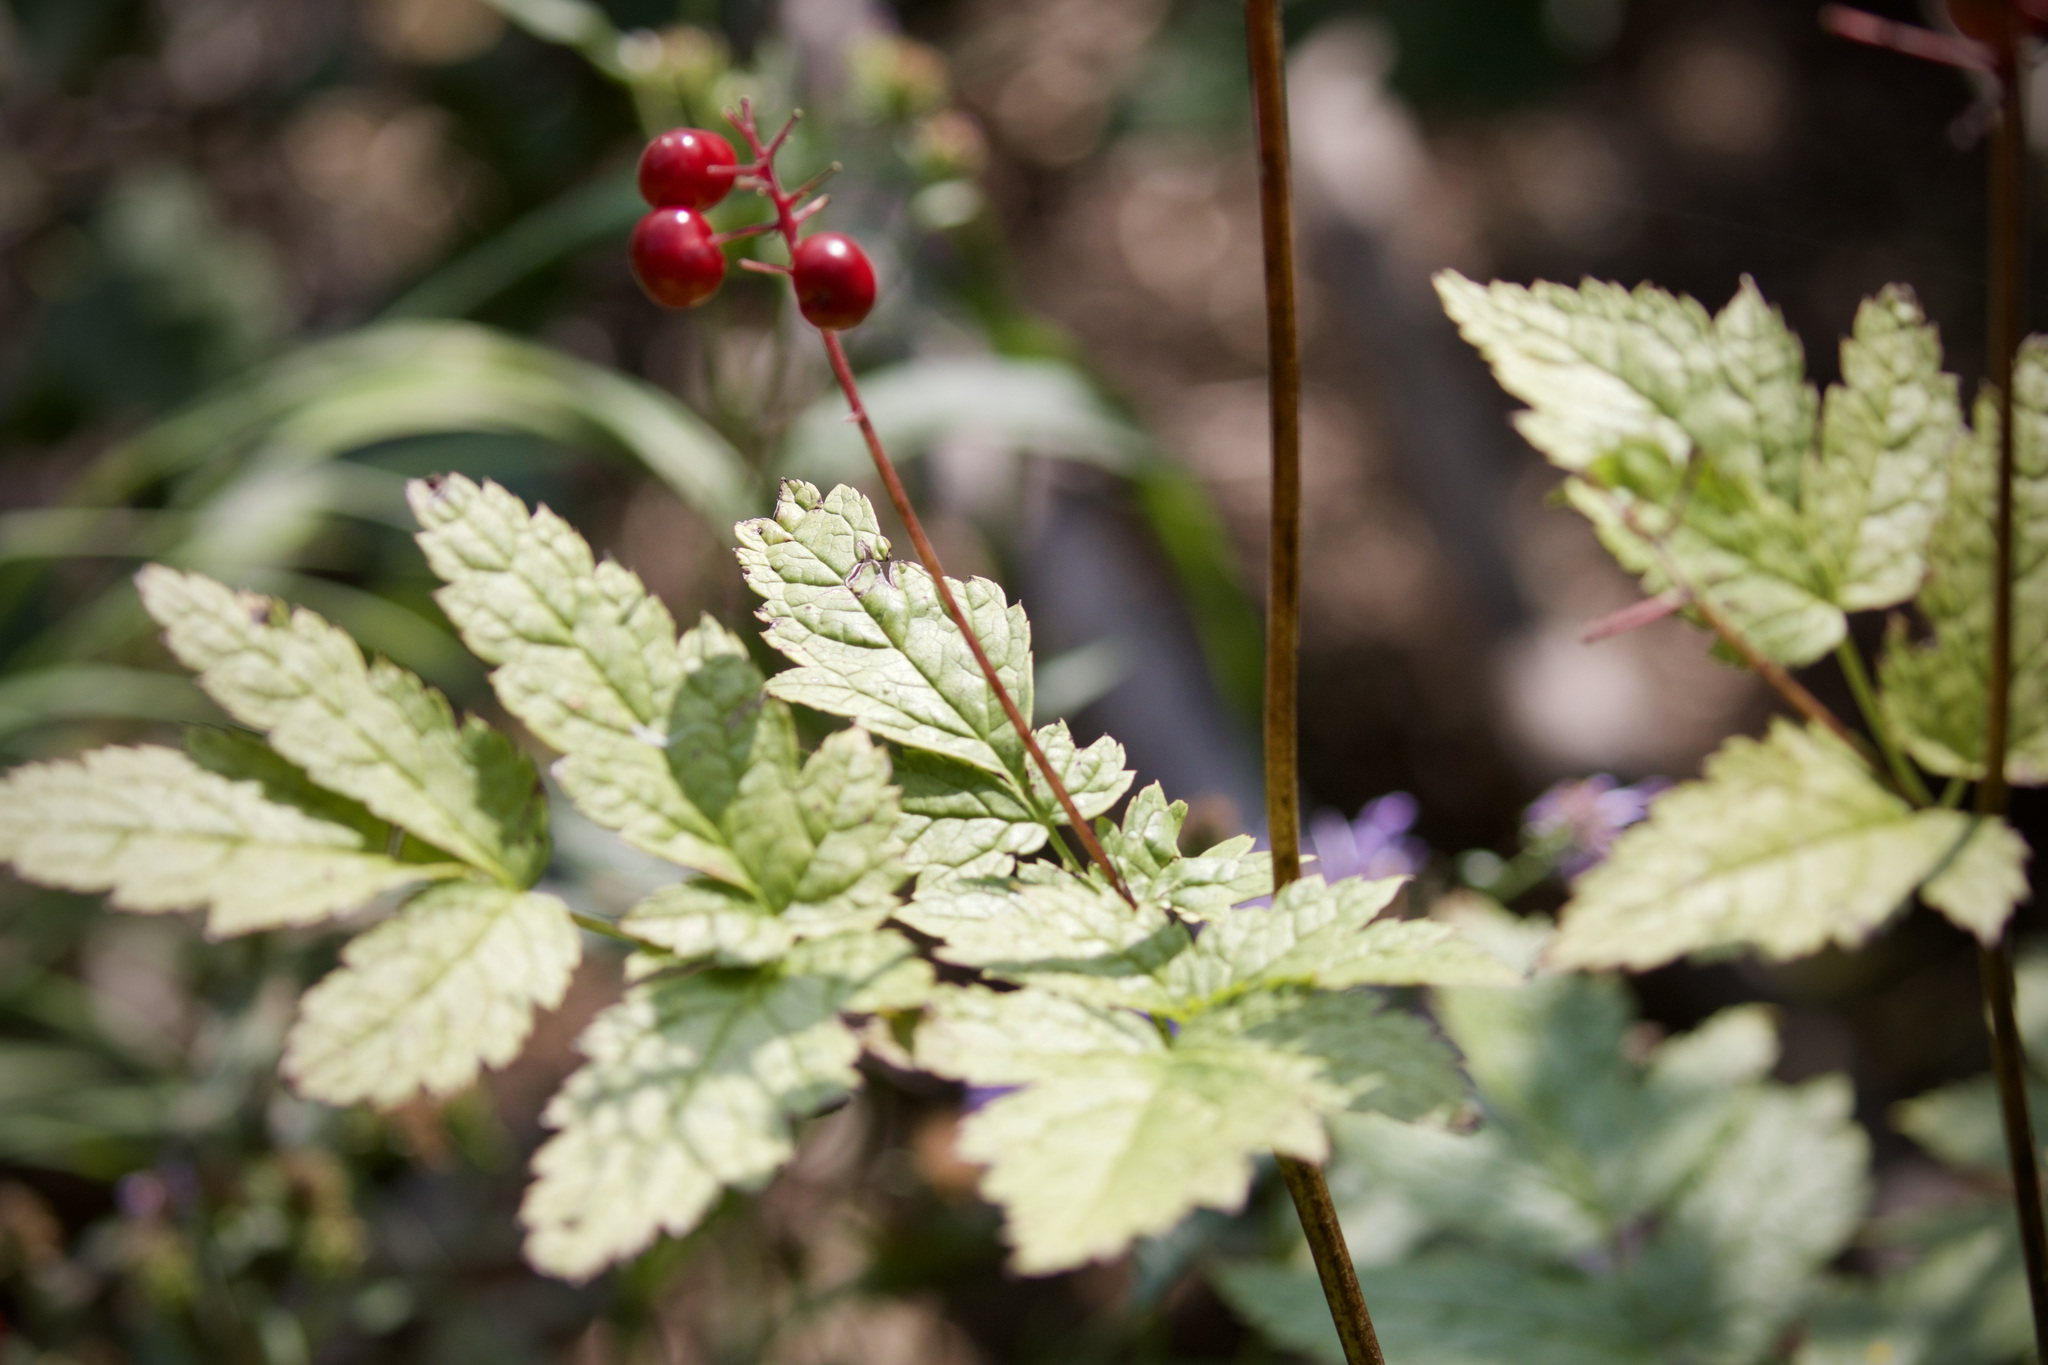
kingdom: Plantae
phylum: Tracheophyta
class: Magnoliopsida
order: Ranunculales
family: Ranunculaceae
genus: Actaea
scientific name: Actaea rubra
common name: Red baneberry
